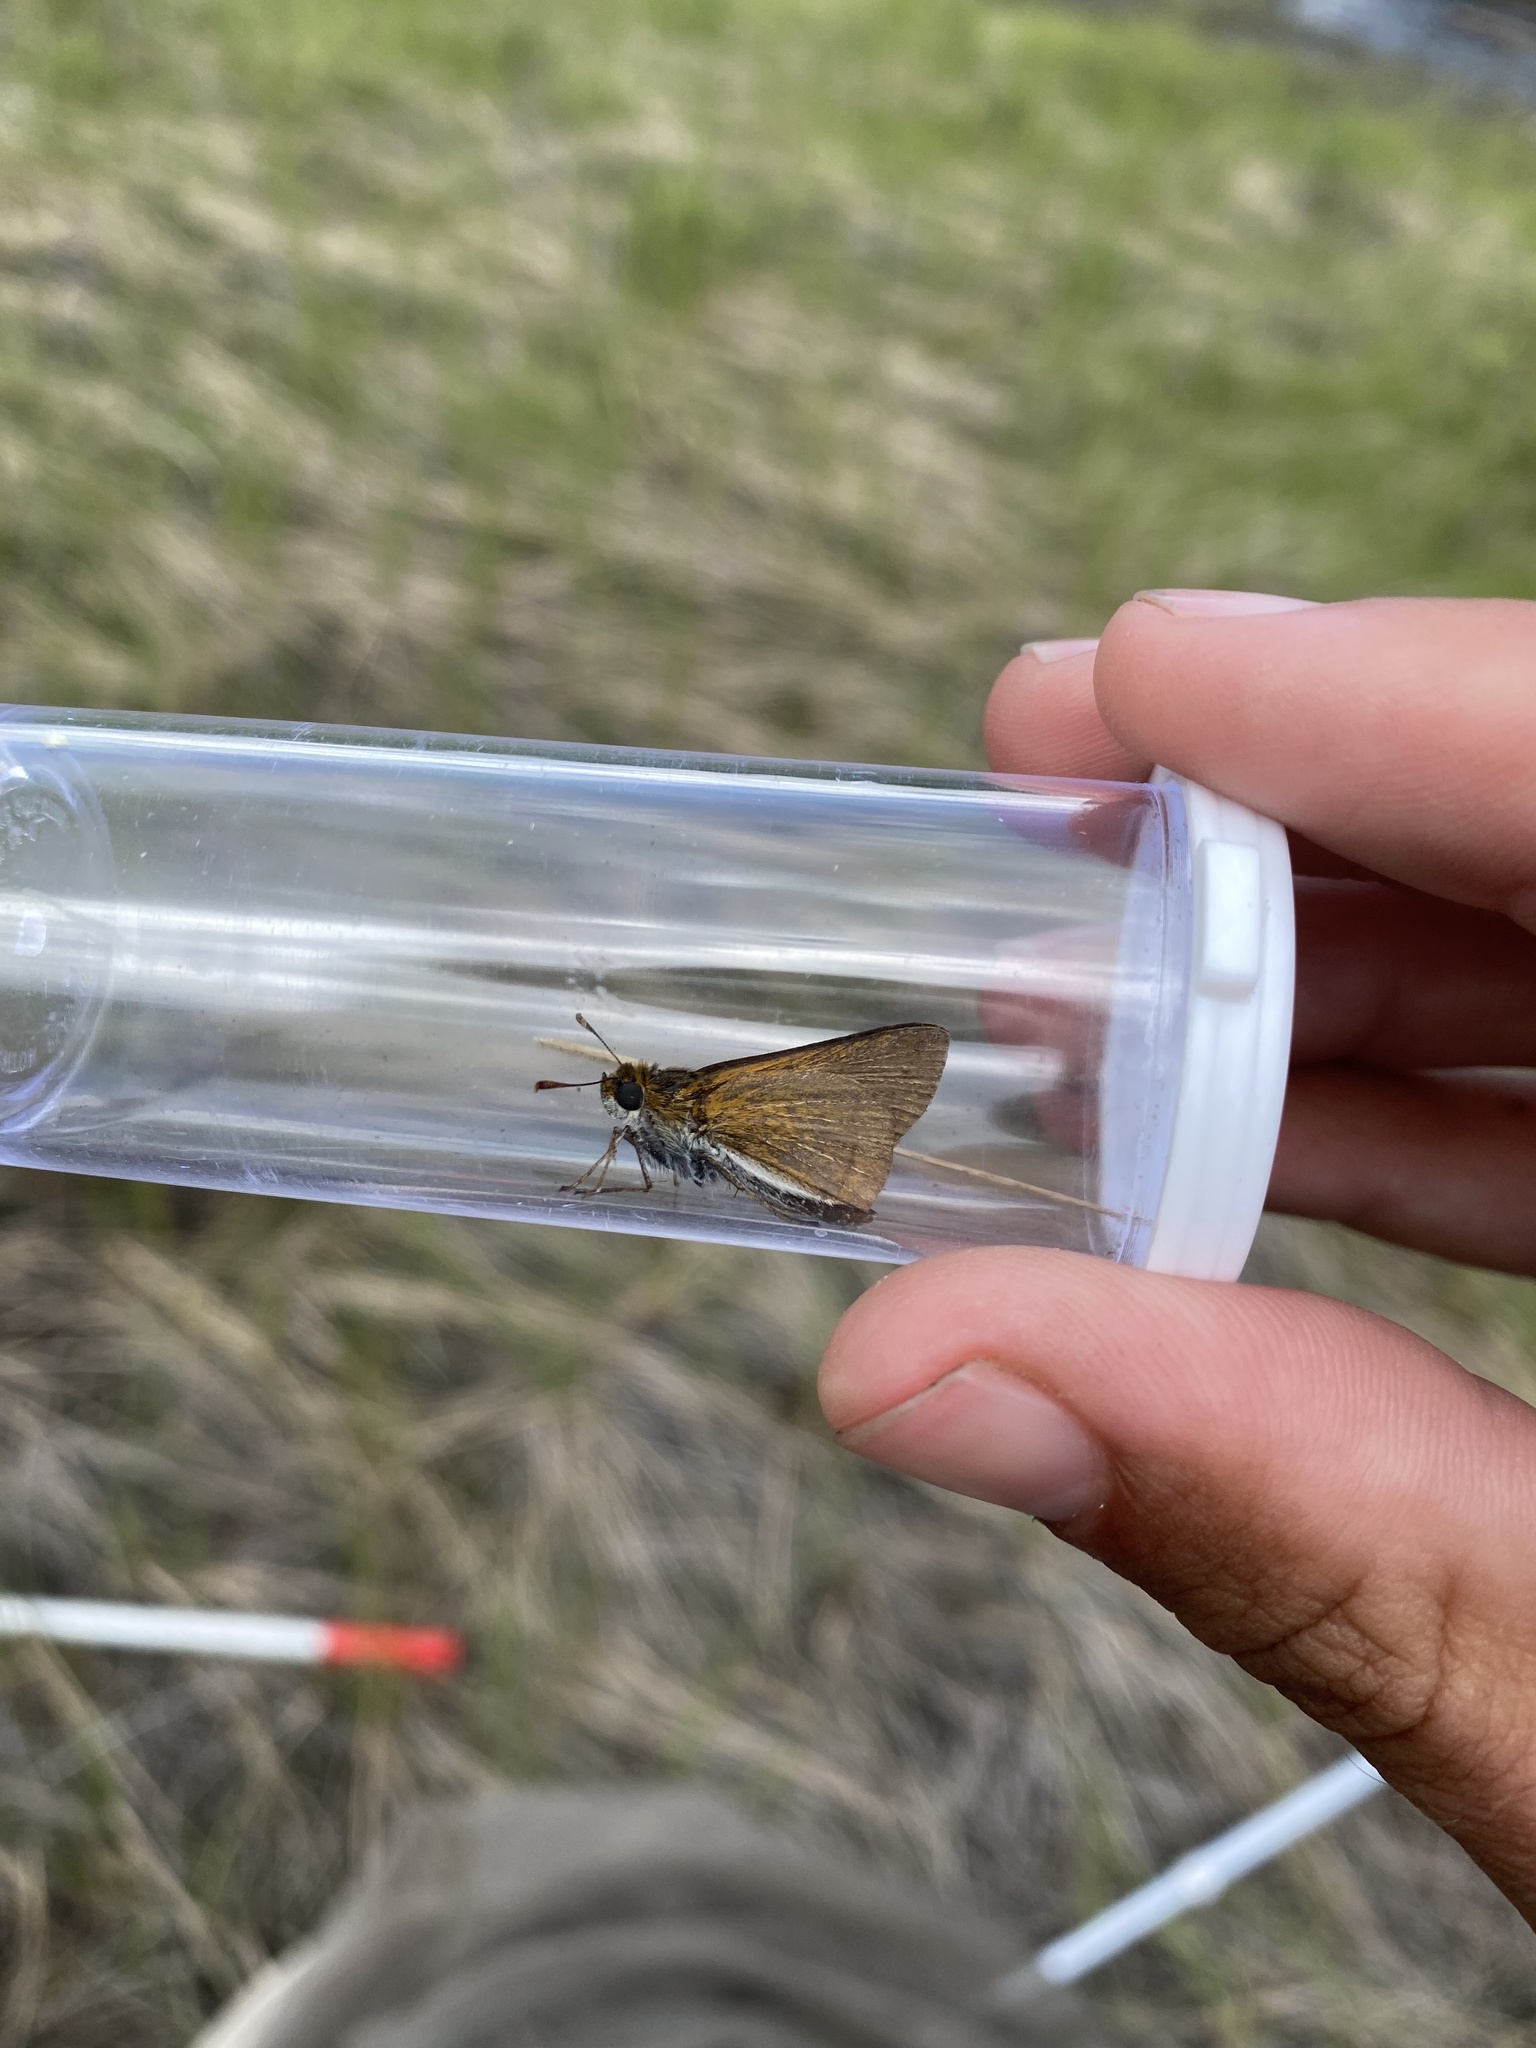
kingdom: Animalia
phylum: Arthropoda
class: Insecta
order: Lepidoptera
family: Hesperiidae
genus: Euphyes
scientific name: Euphyes bimacula
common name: Two-spotted skipper
